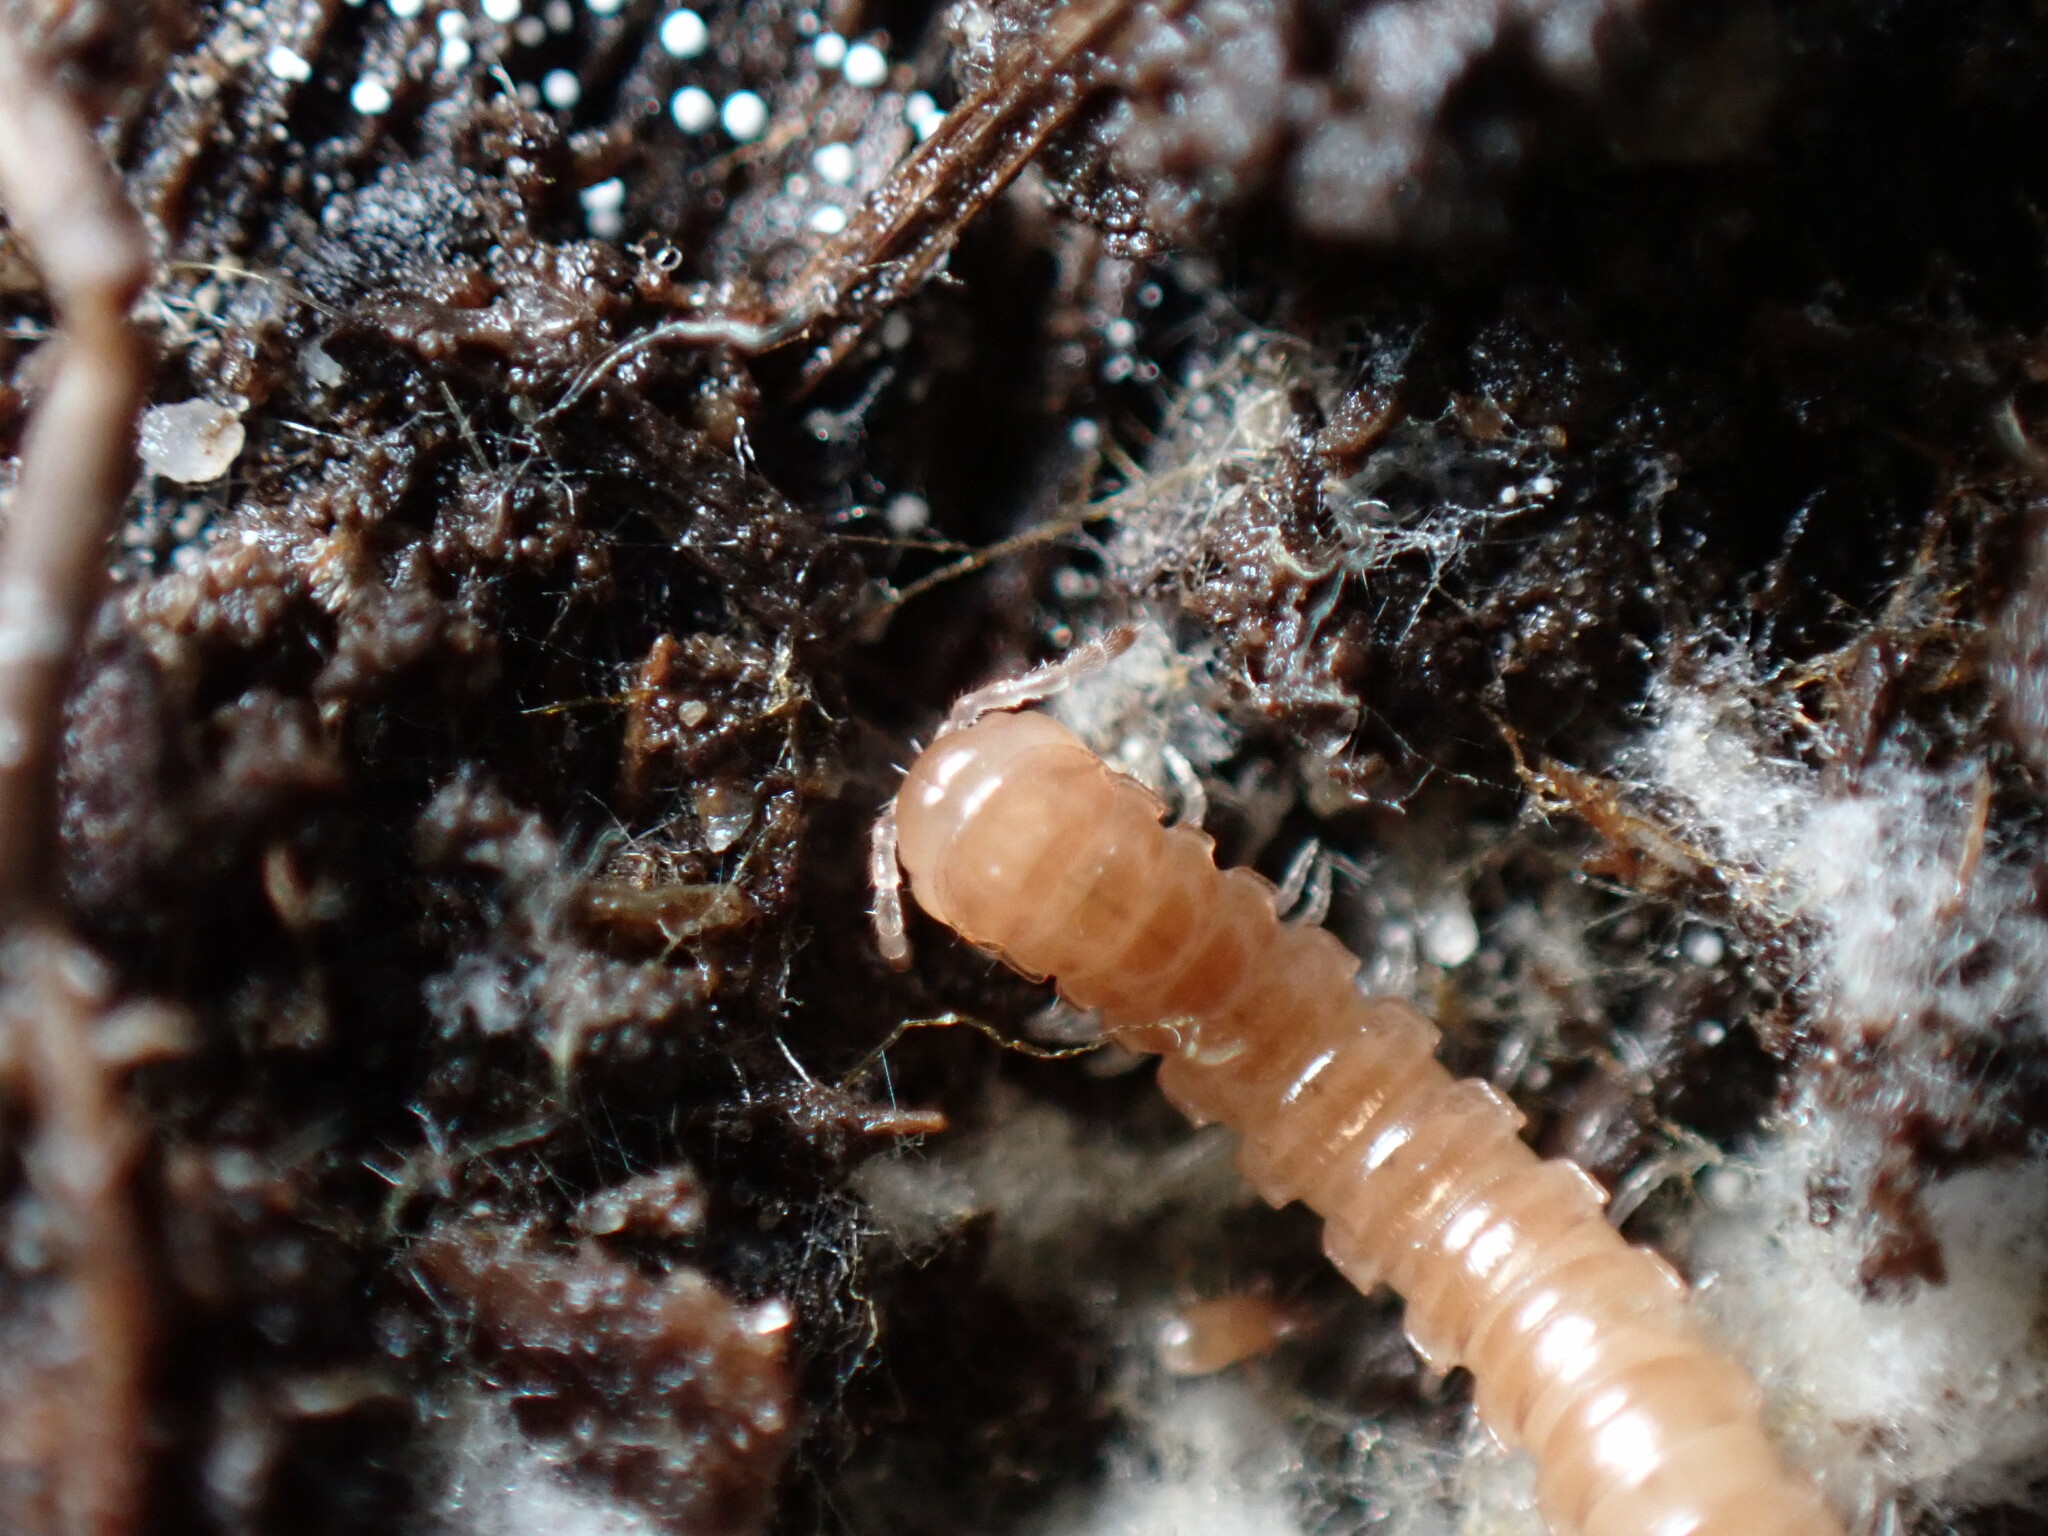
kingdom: Animalia
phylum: Arthropoda
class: Diplopoda
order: Polydesmida
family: Paradoxosomatidae
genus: Oxidus
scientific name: Oxidus gracilis
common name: Greenhouse millipede
